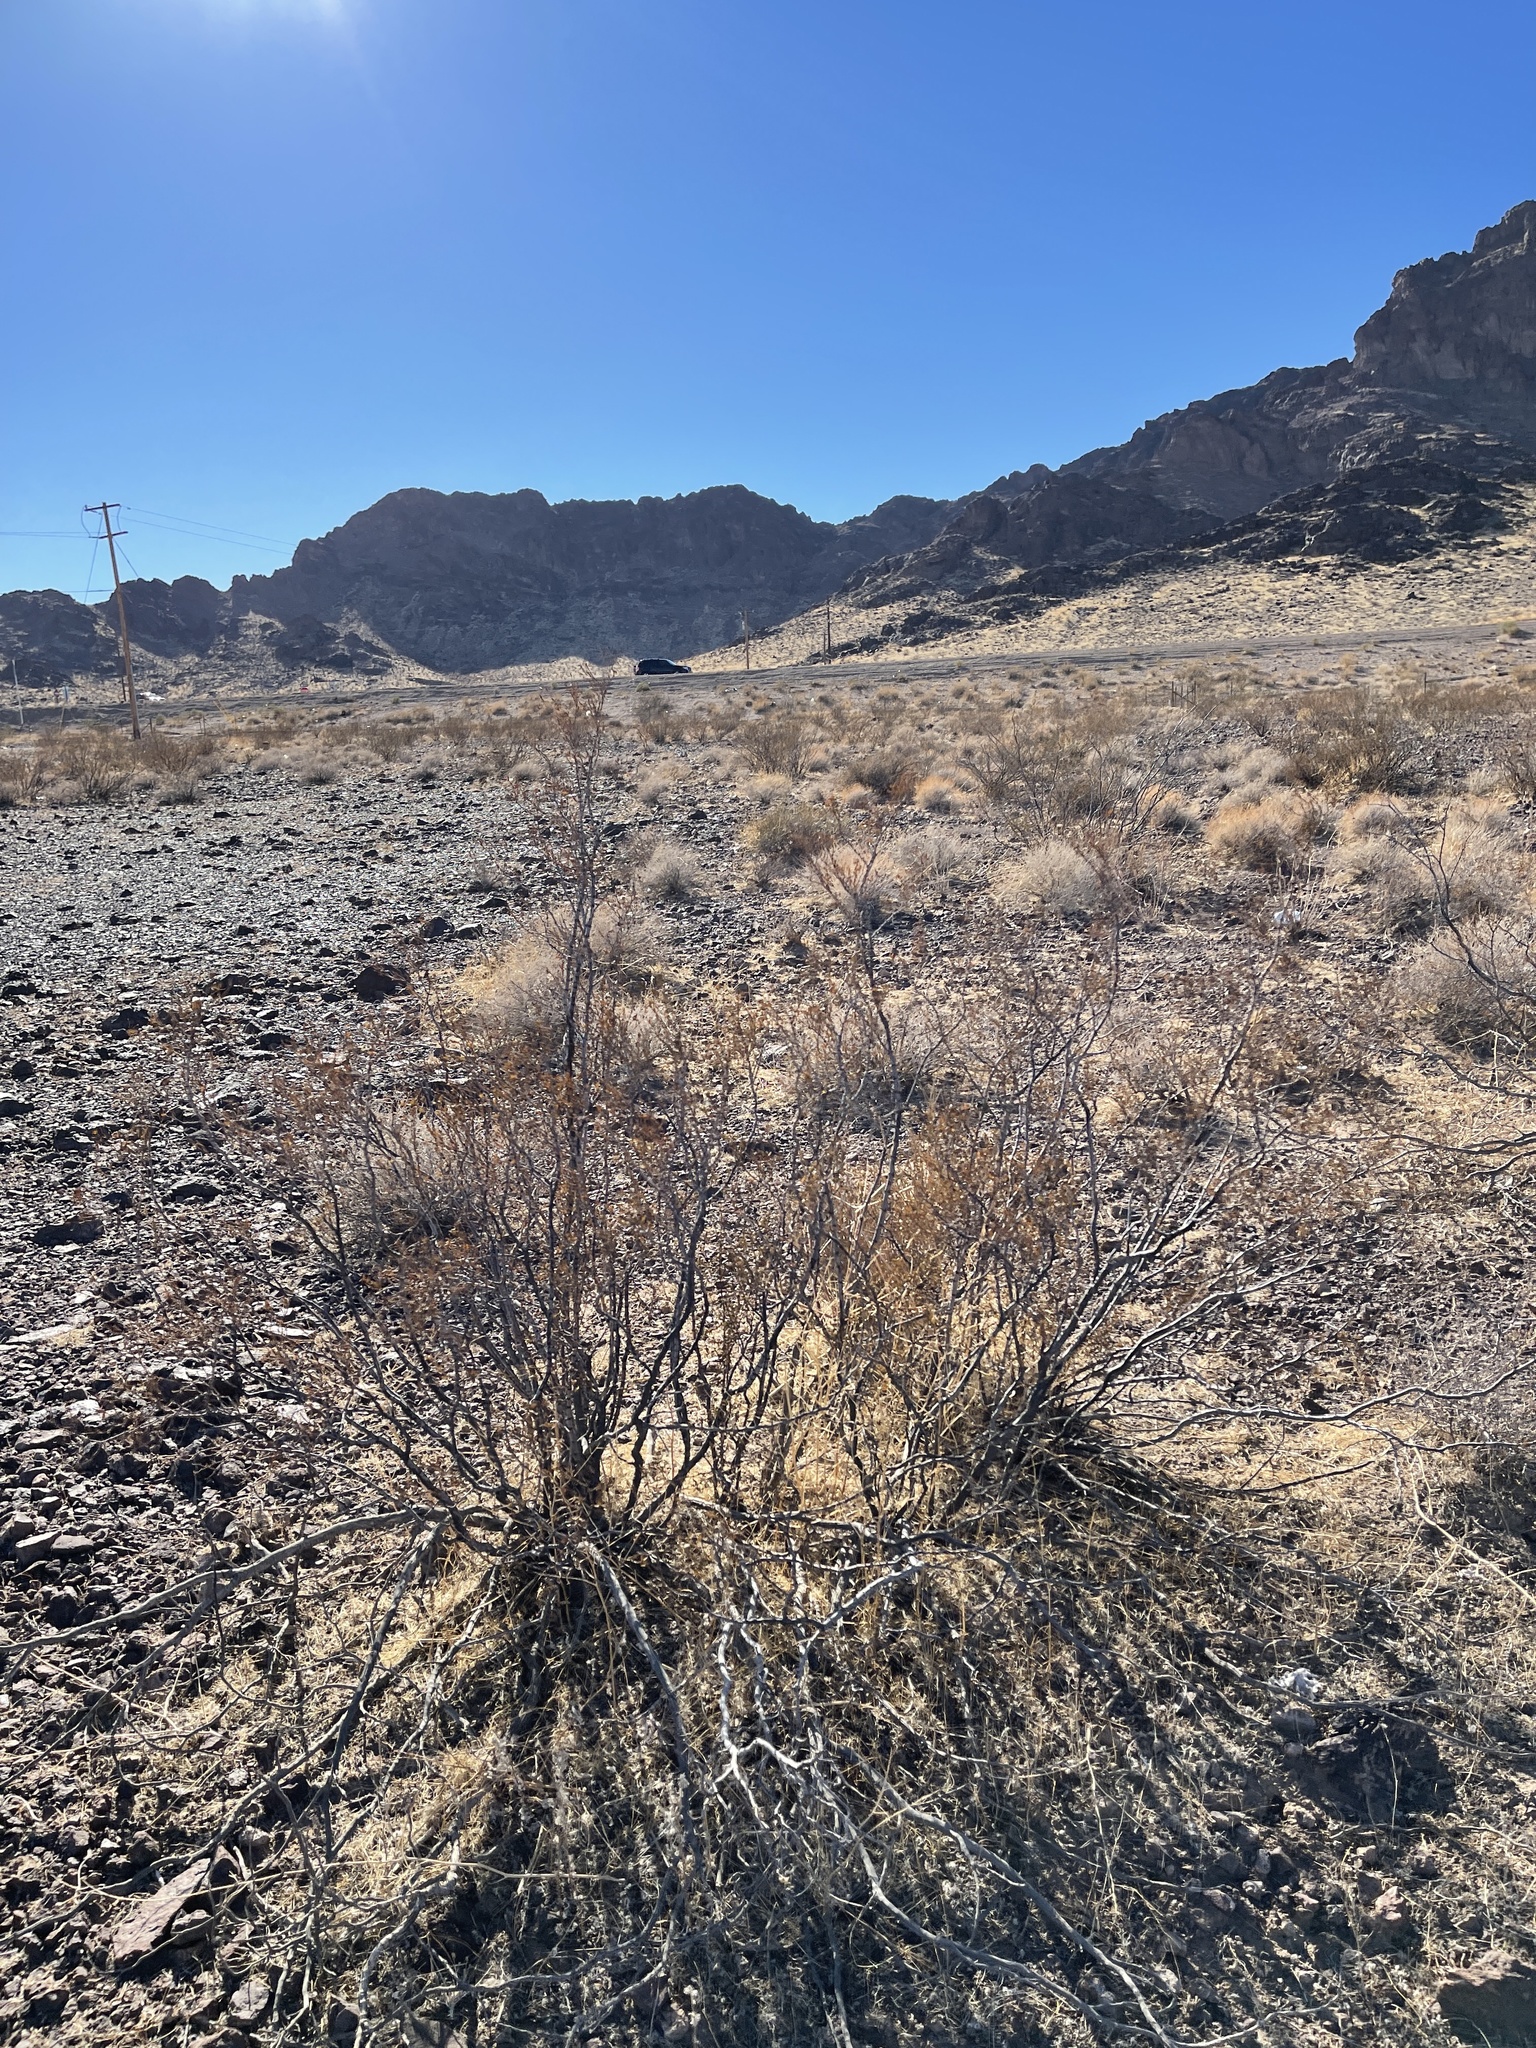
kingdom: Plantae
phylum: Tracheophyta
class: Magnoliopsida
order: Zygophyllales
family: Zygophyllaceae
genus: Larrea
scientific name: Larrea tridentata
